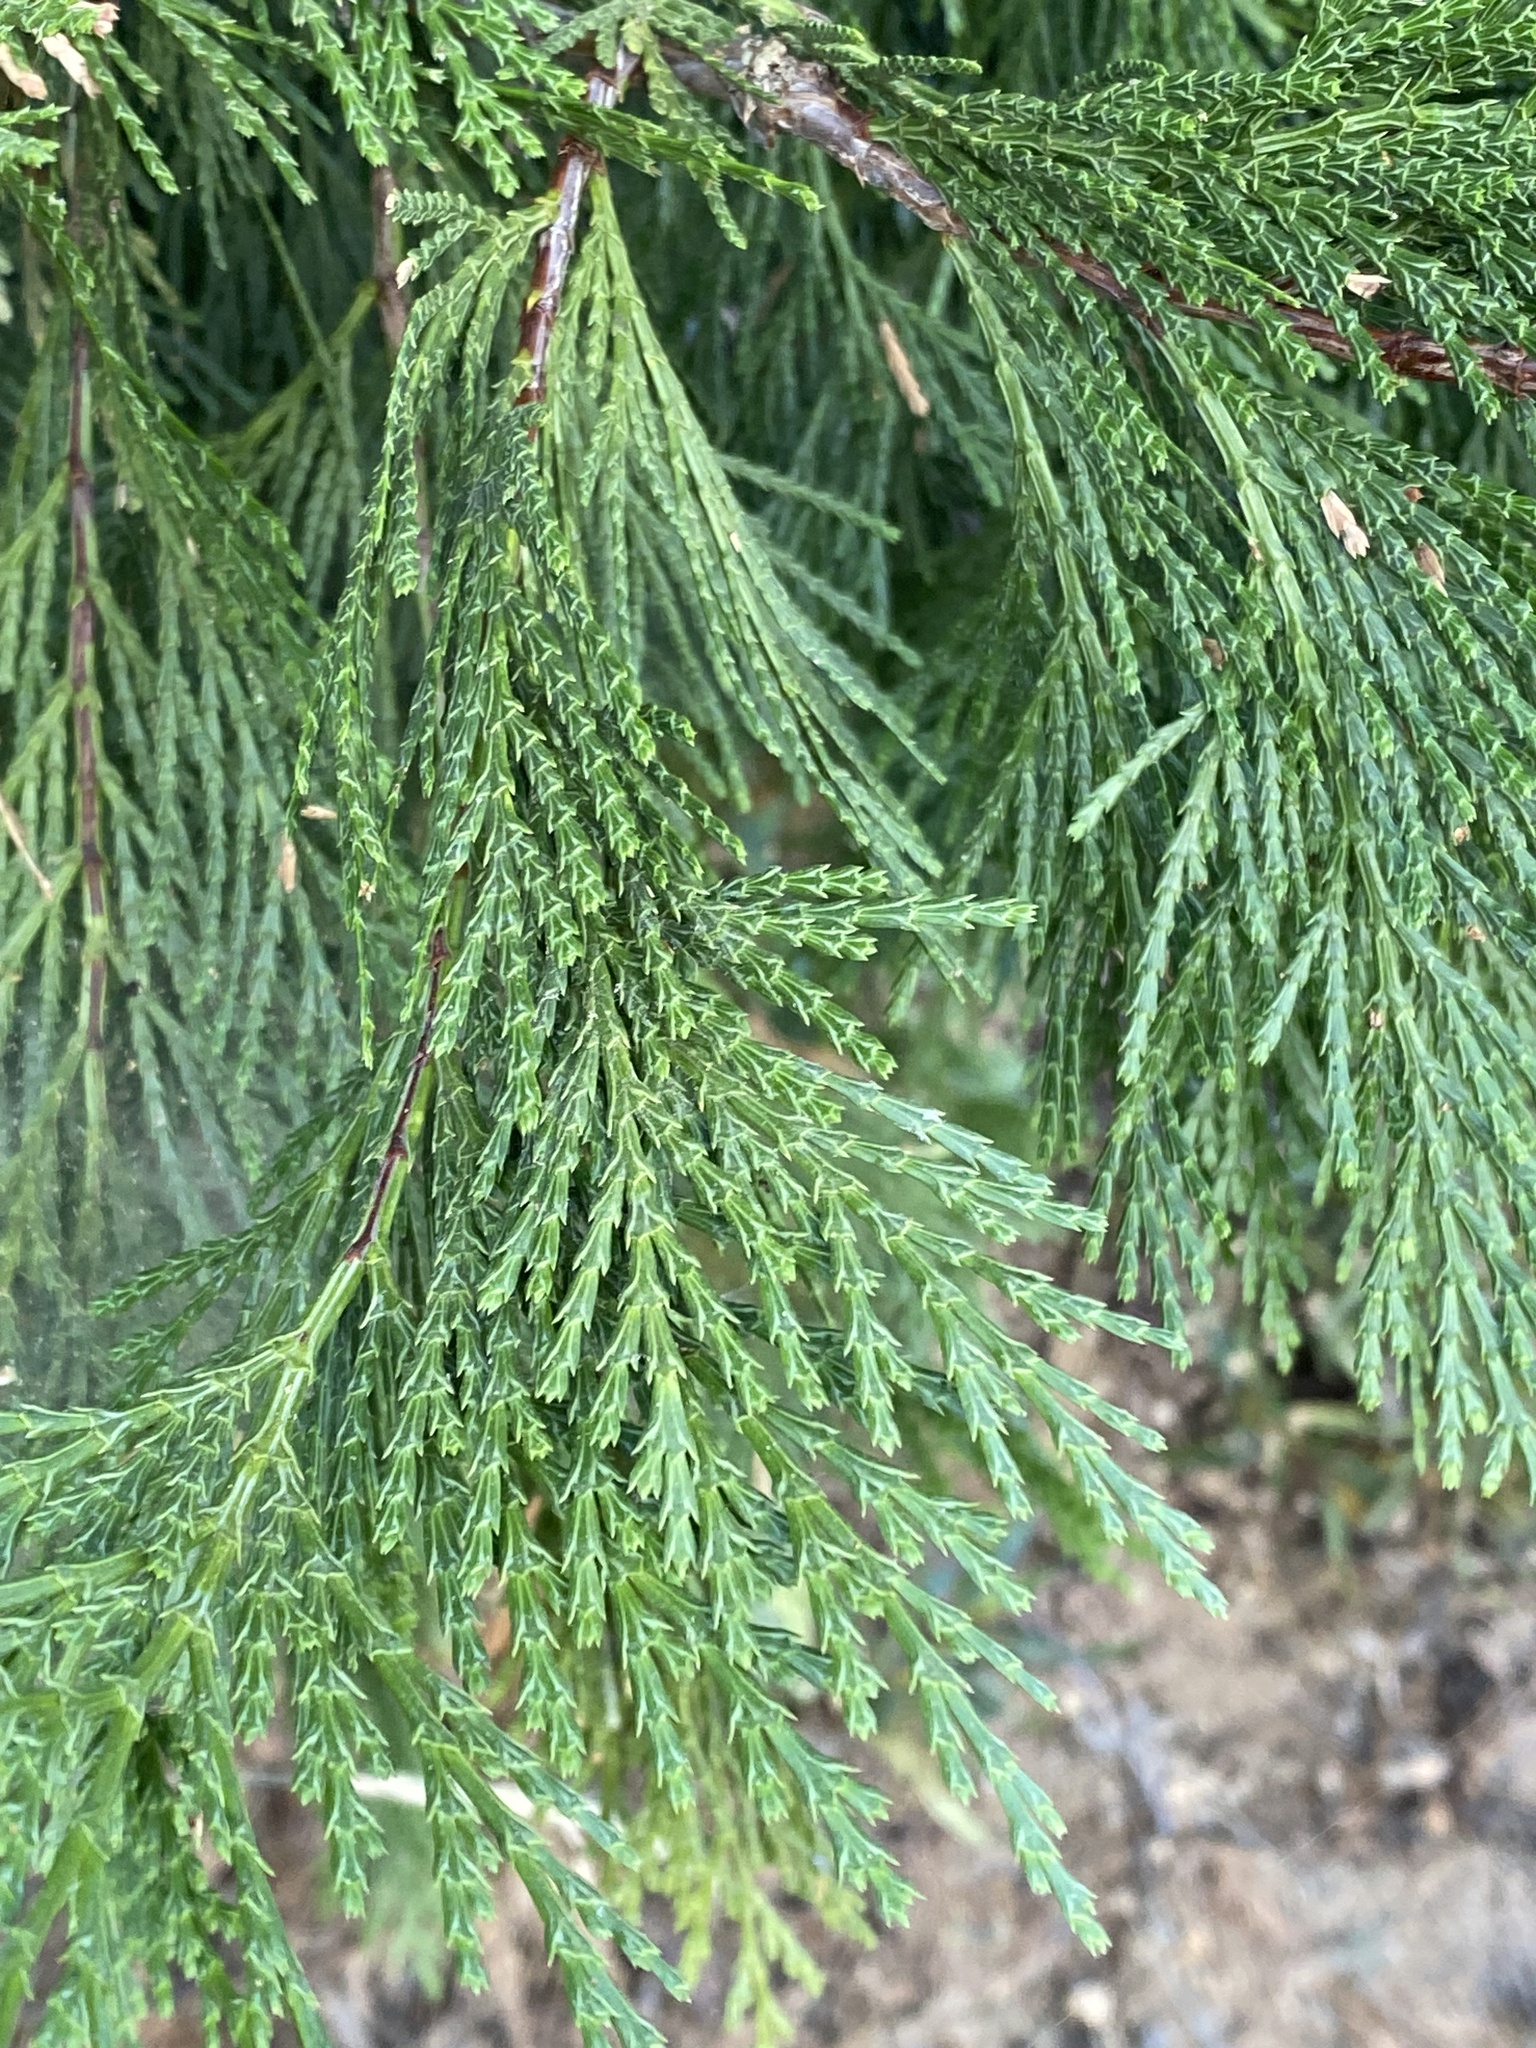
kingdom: Plantae
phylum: Tracheophyta
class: Pinopsida
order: Pinales
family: Cupressaceae
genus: Calocedrus
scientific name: Calocedrus decurrens
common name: Californian incense-cedar
